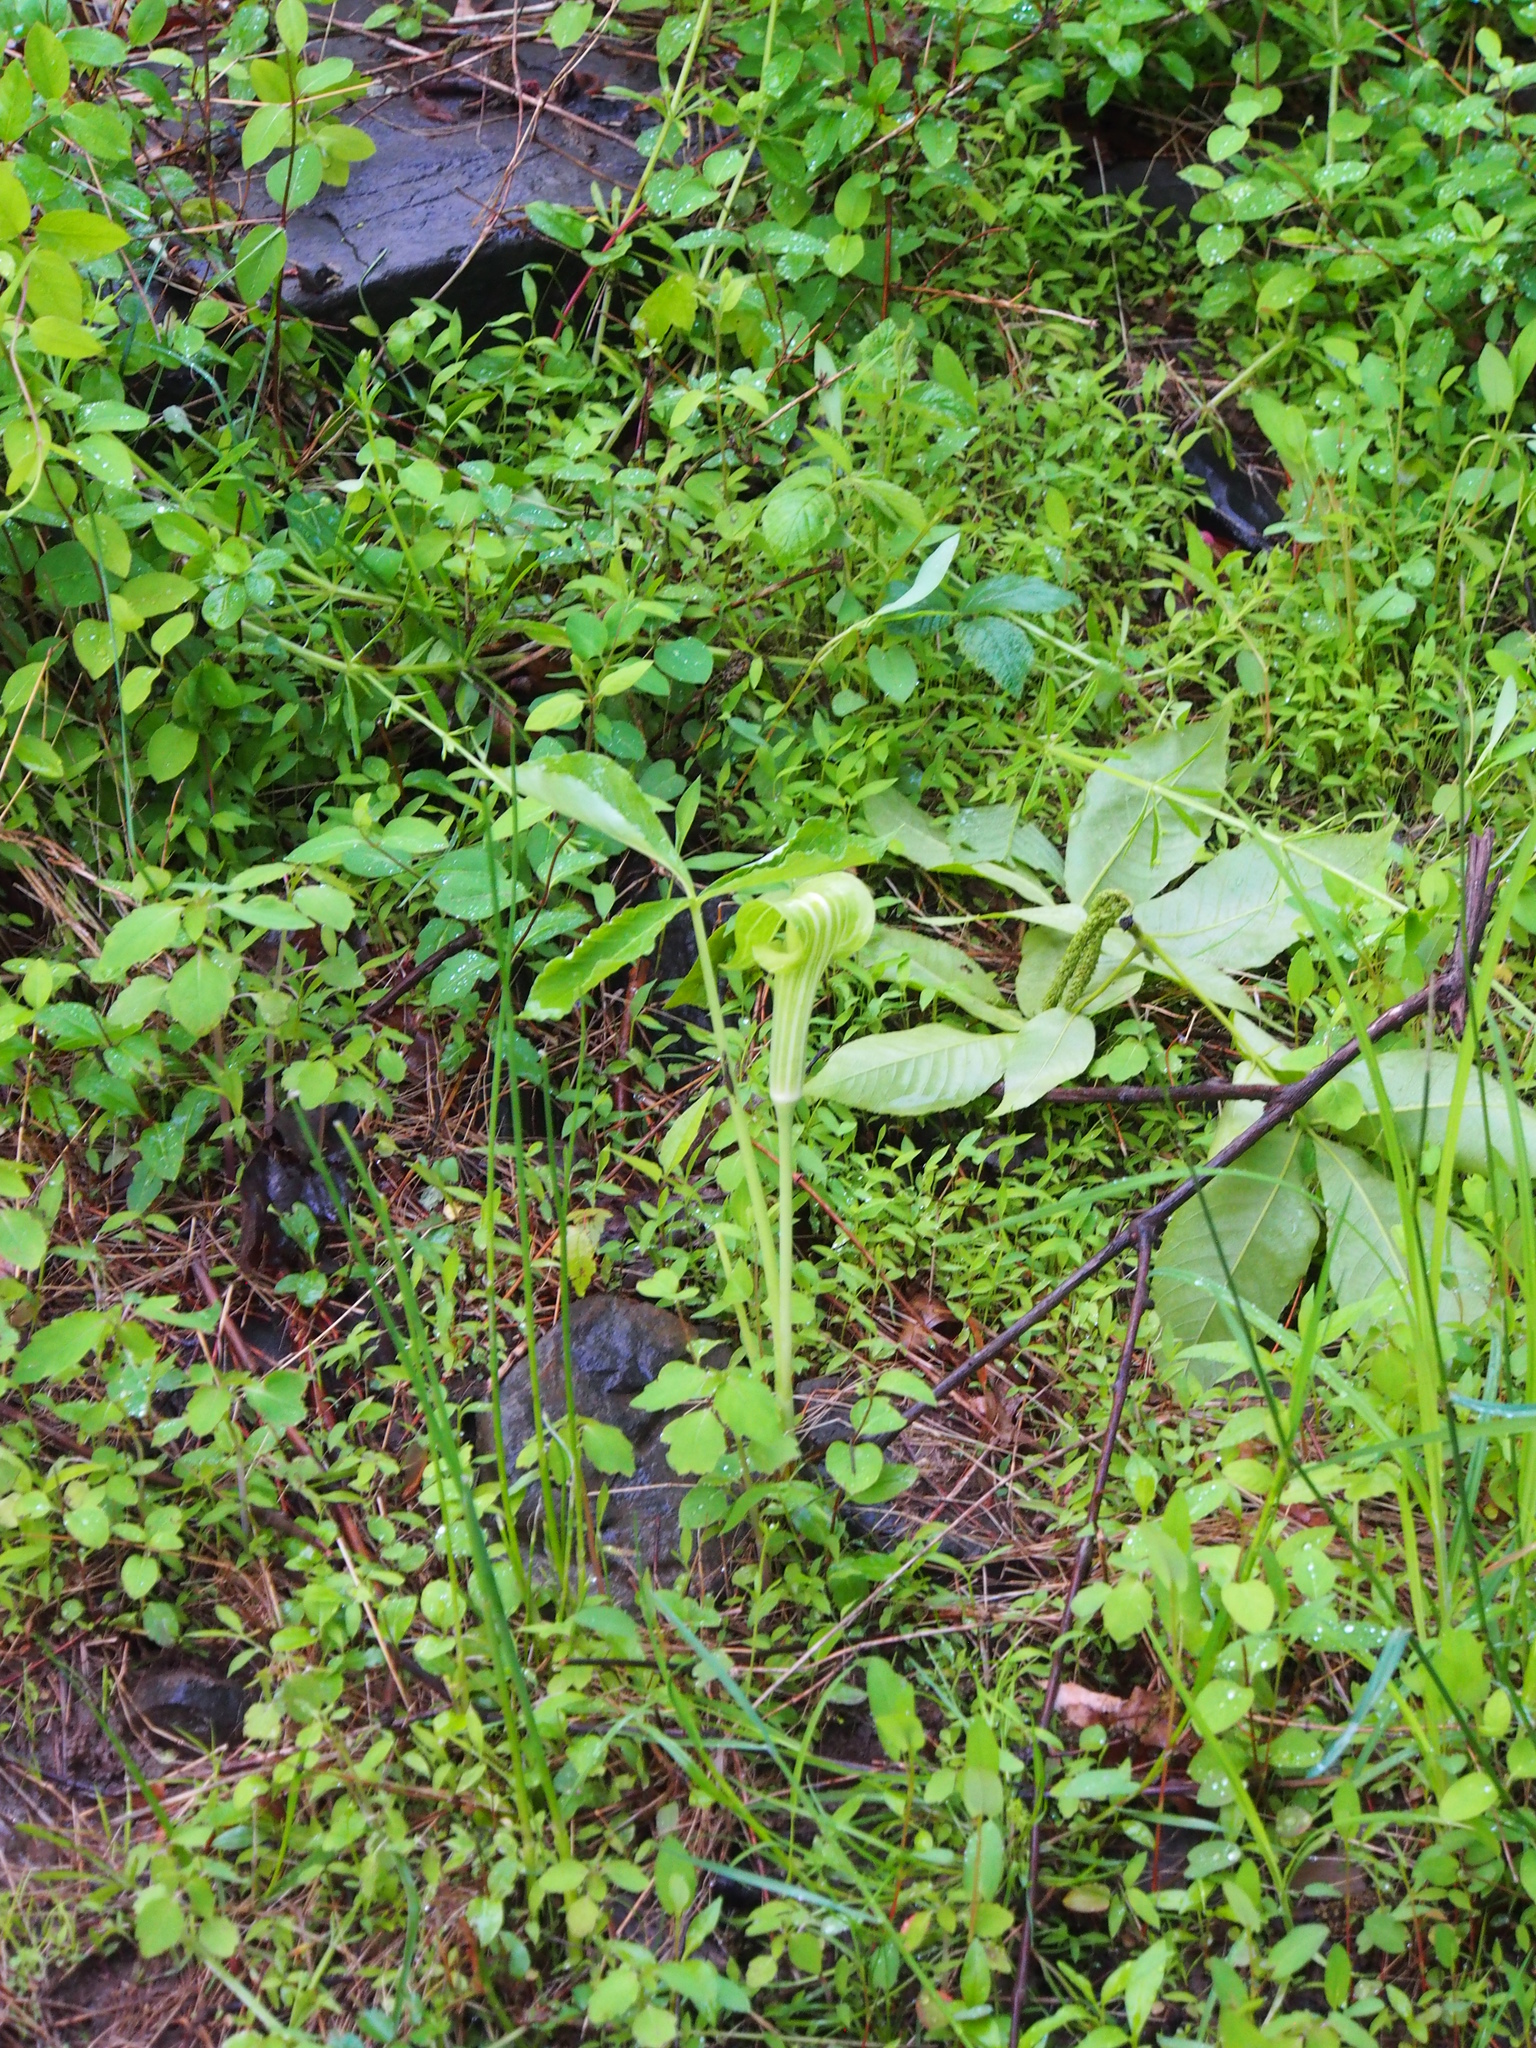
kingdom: Plantae
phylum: Tracheophyta
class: Liliopsida
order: Alismatales
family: Araceae
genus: Arisaema
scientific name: Arisaema triphyllum
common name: Jack-in-the-pulpit
